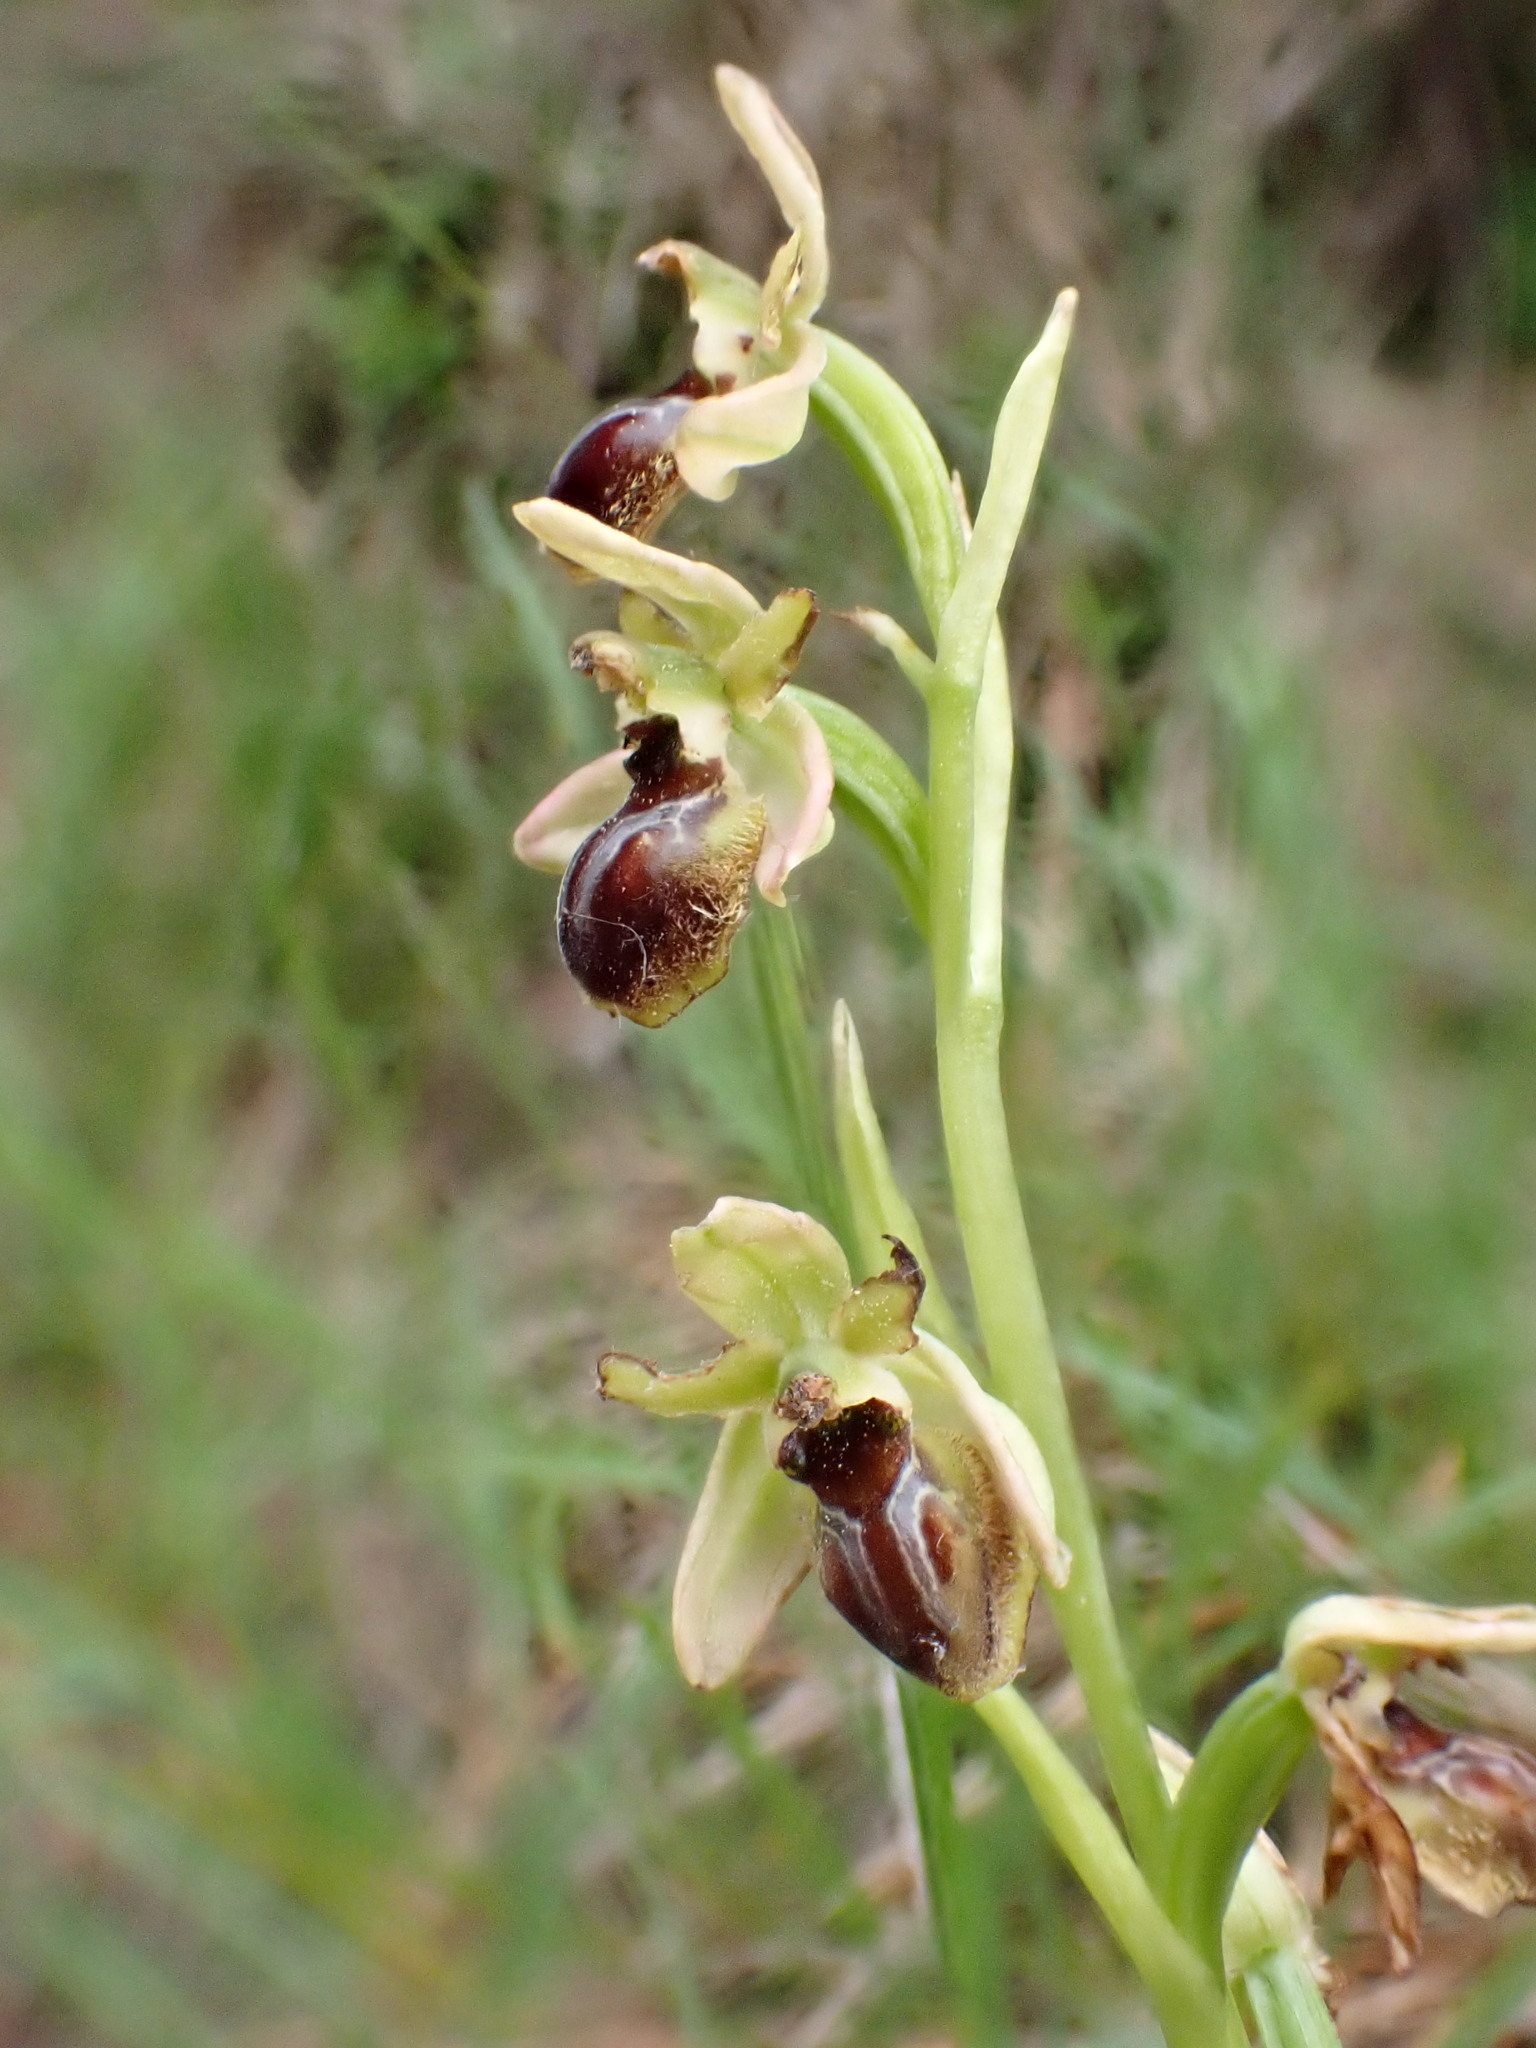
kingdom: Plantae
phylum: Tracheophyta
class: Liliopsida
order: Asparagales
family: Orchidaceae
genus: Ophrys
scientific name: Ophrys sphegodes
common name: Early spider-orchid
